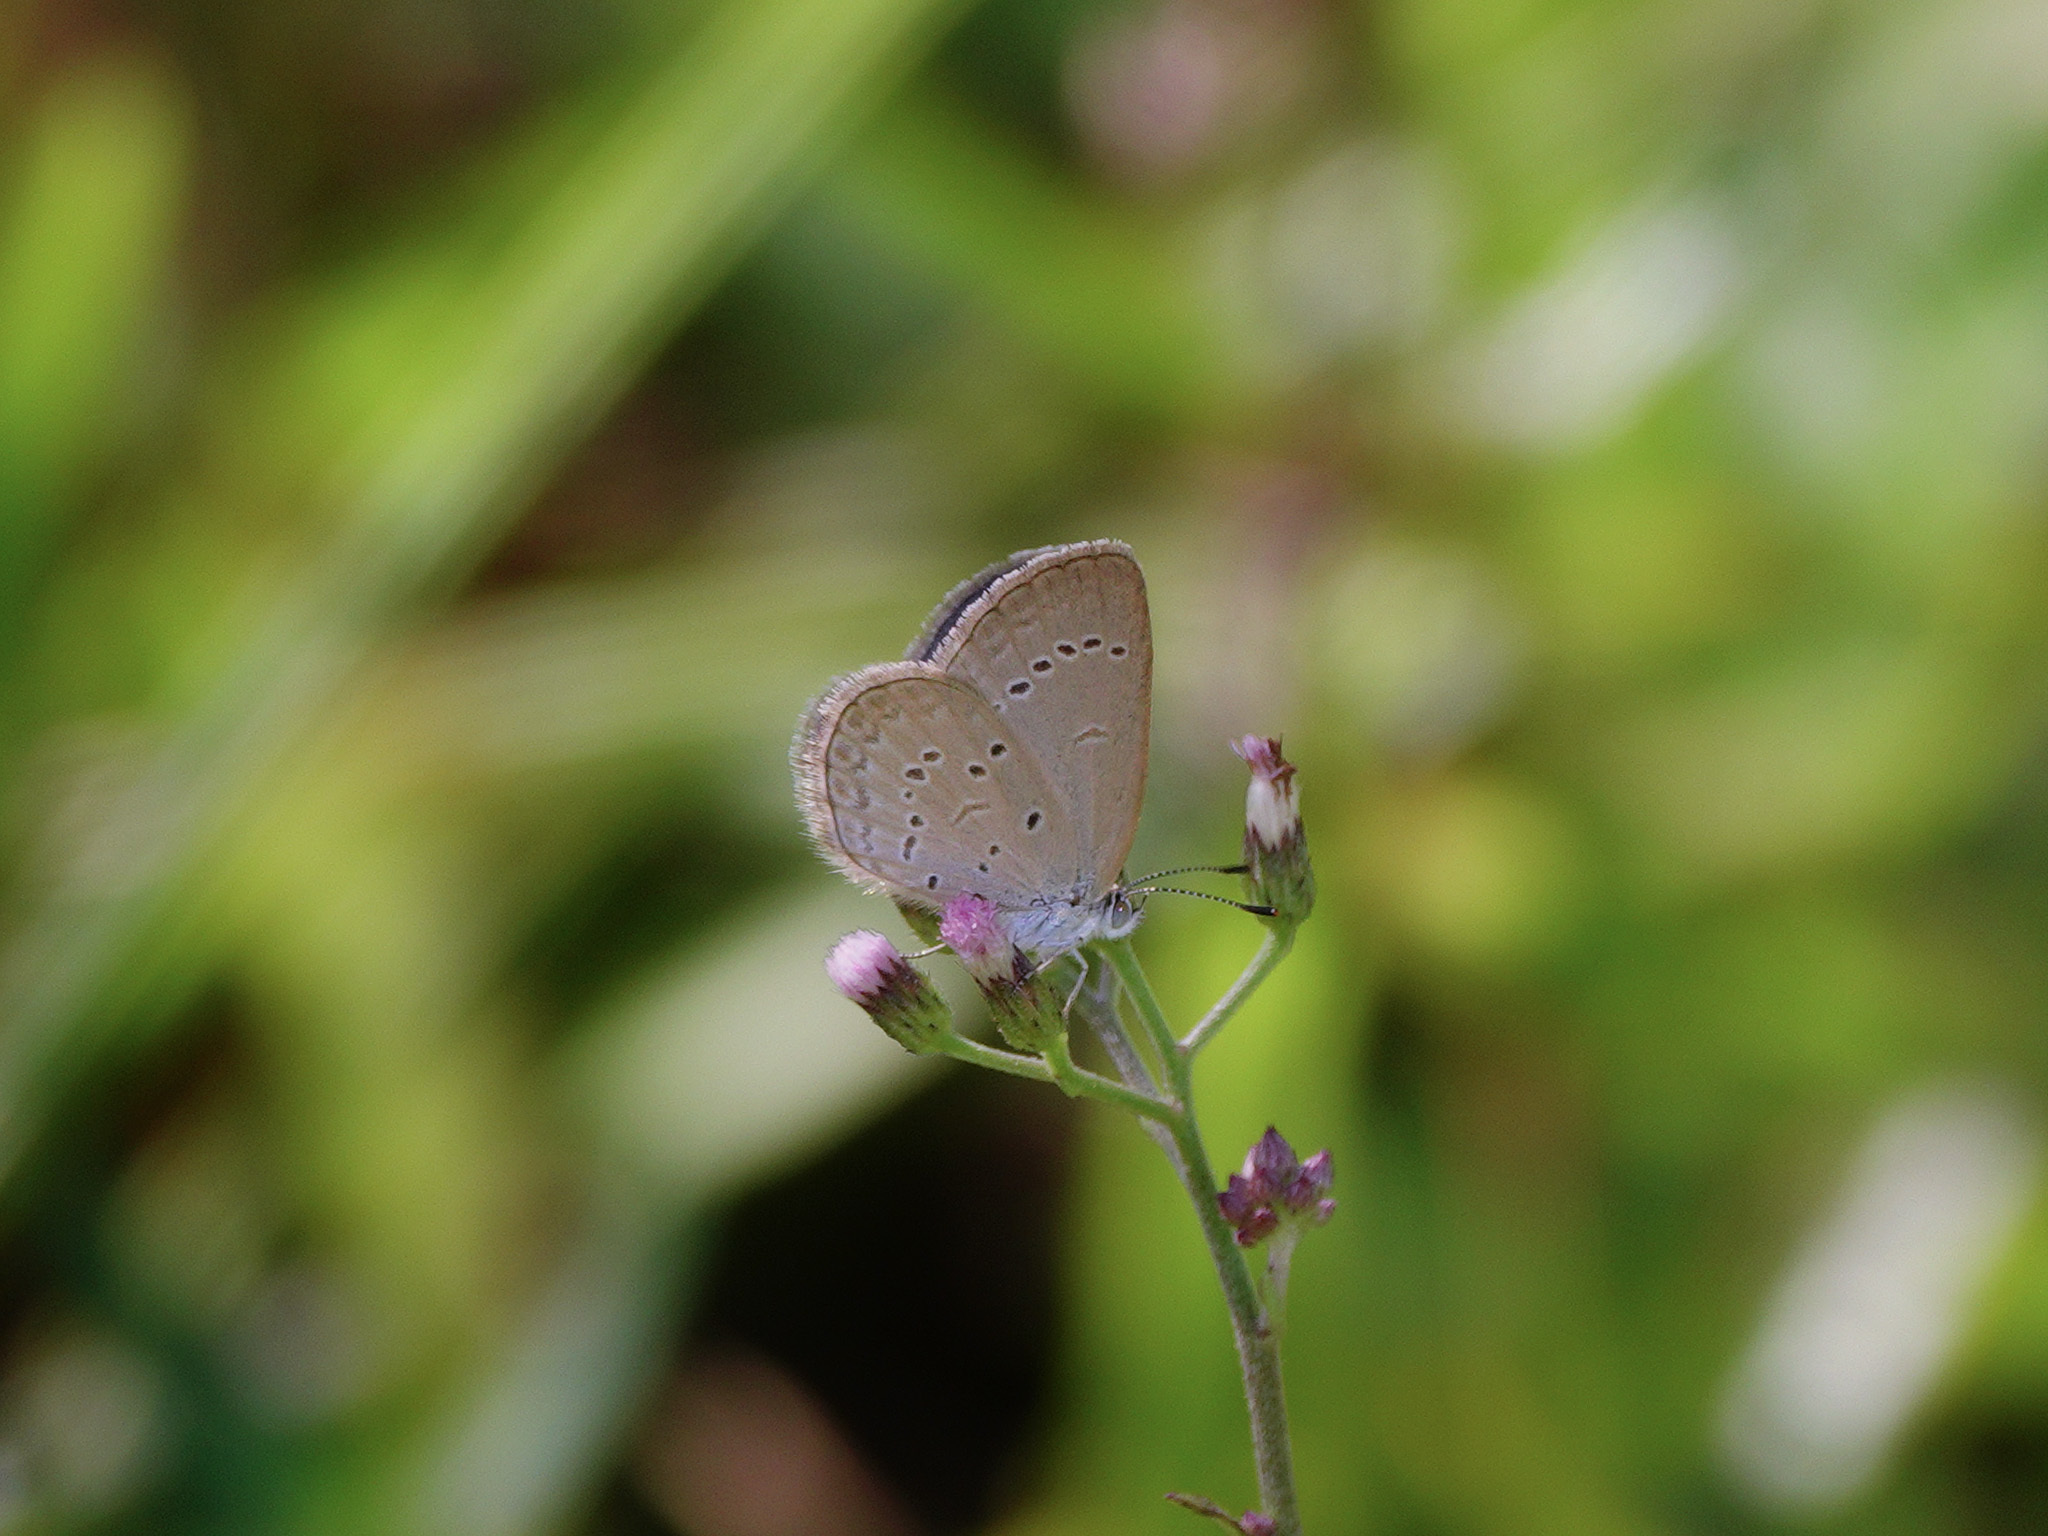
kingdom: Animalia
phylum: Arthropoda
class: Insecta
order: Lepidoptera
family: Lycaenidae
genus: Zizina
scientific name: Zizina otis
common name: Lesser grass blue
